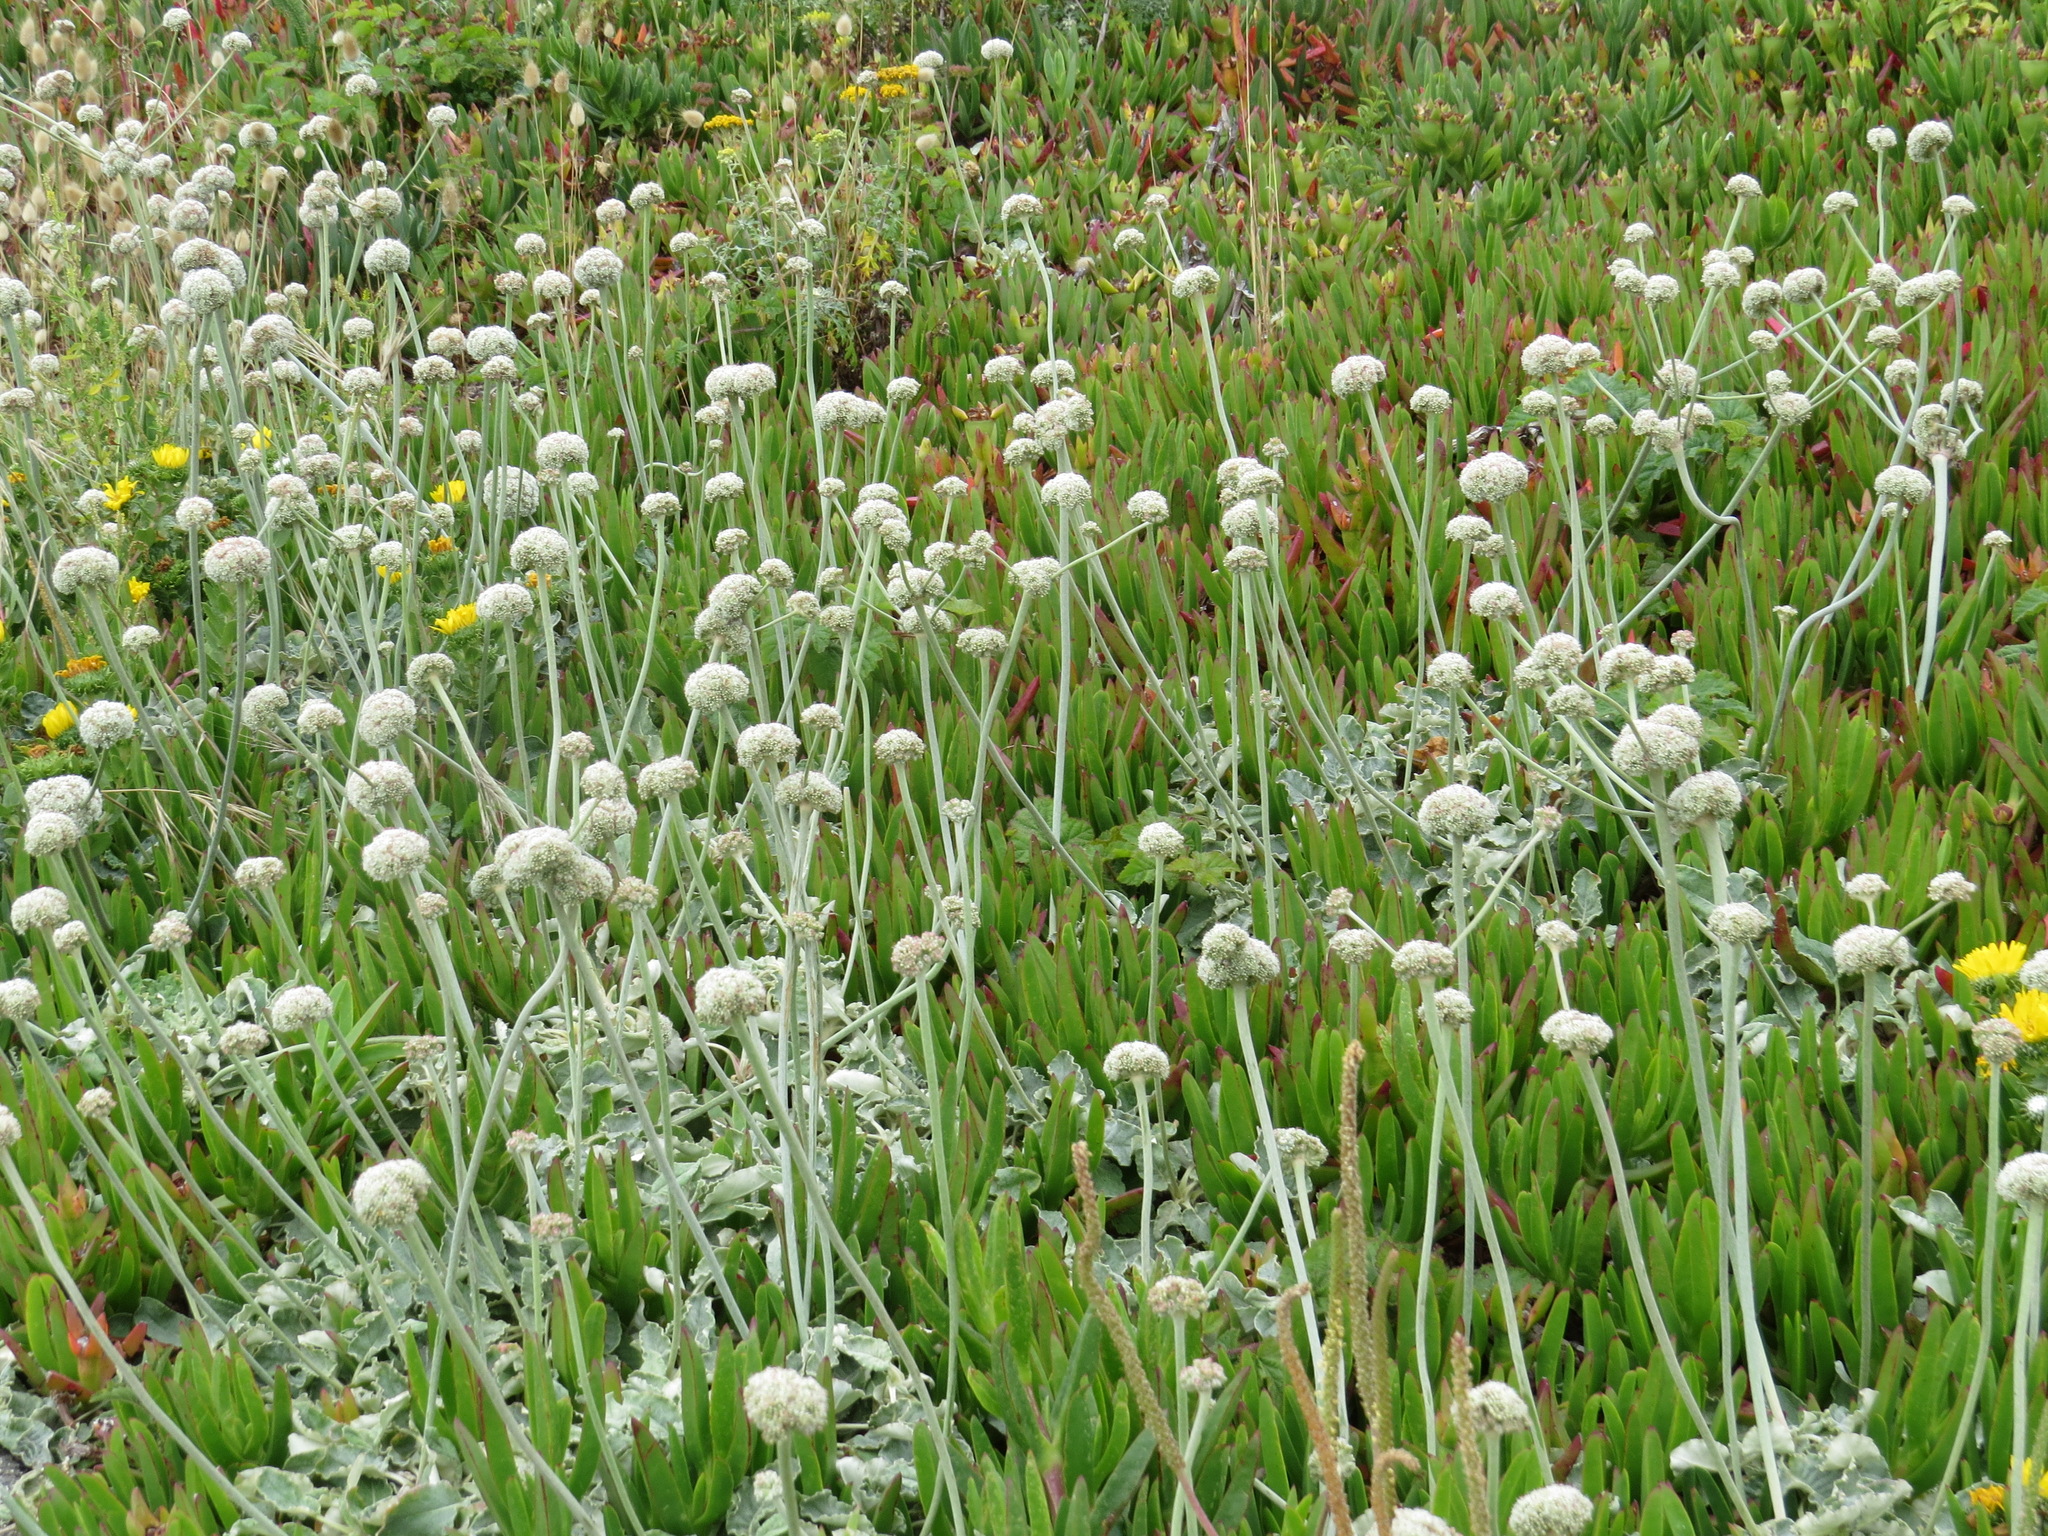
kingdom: Plantae
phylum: Tracheophyta
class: Magnoliopsida
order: Caryophyllales
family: Polygonaceae
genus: Eriogonum
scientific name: Eriogonum latifolium
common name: Seaside wild buckwheat
